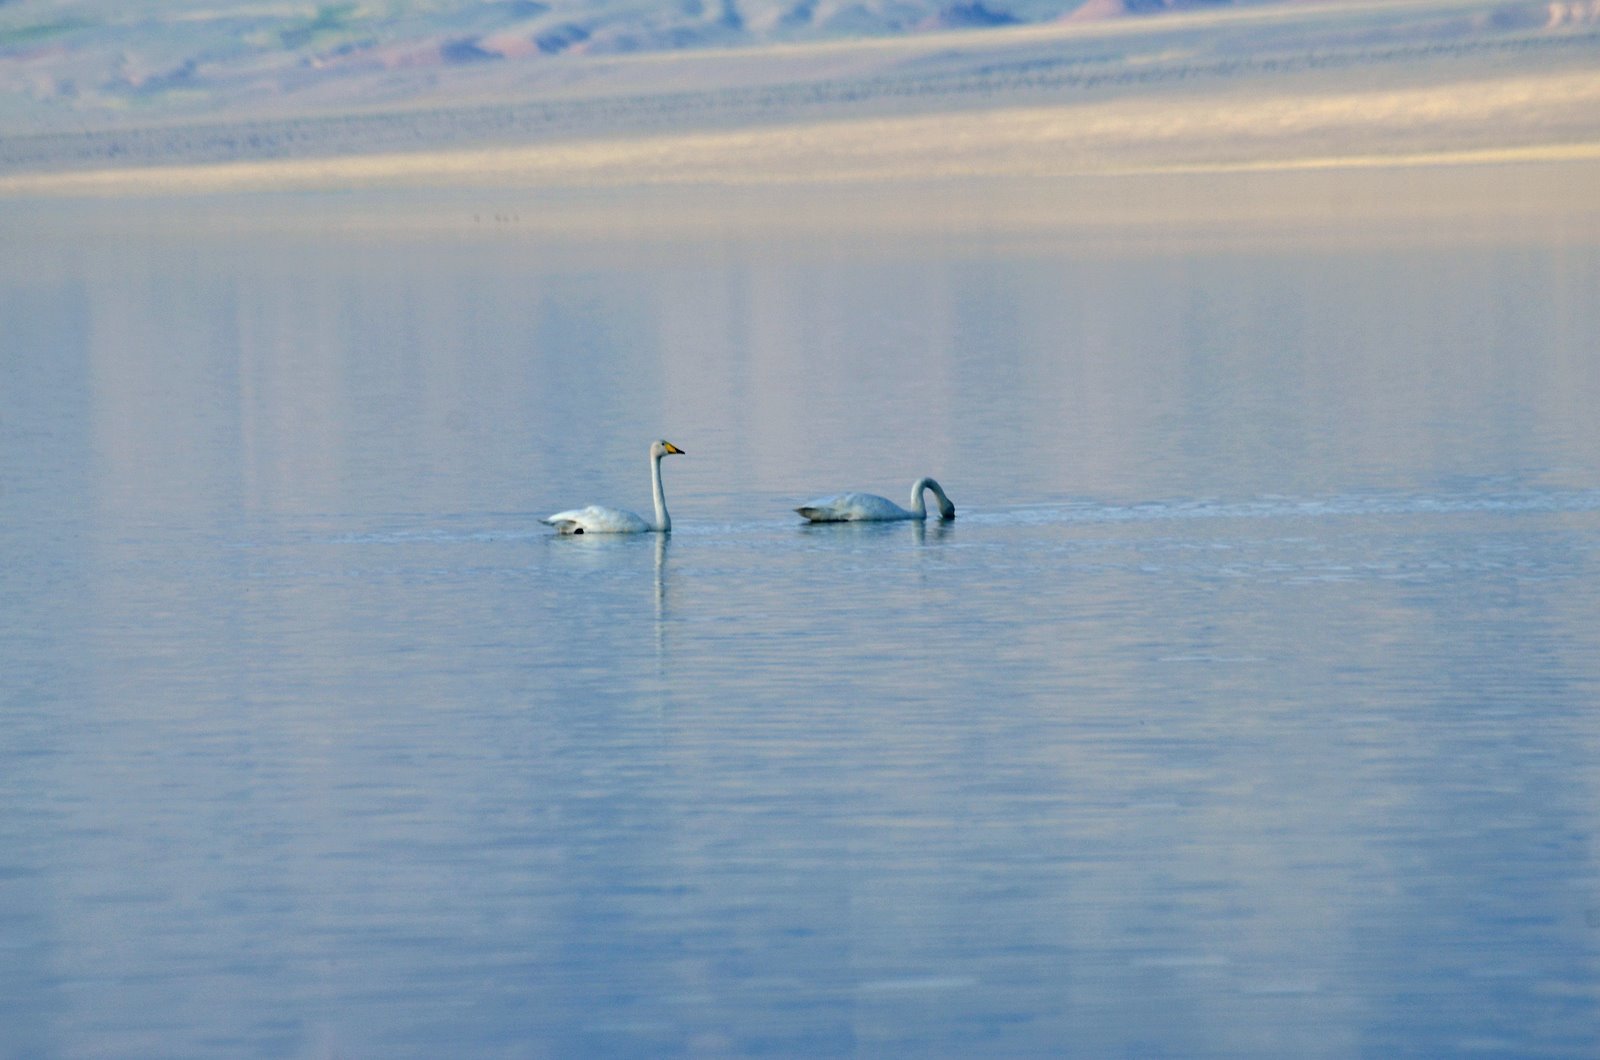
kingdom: Animalia
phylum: Chordata
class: Aves
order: Anseriformes
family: Anatidae
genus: Cygnus
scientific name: Cygnus cygnus
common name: Whooper swan
